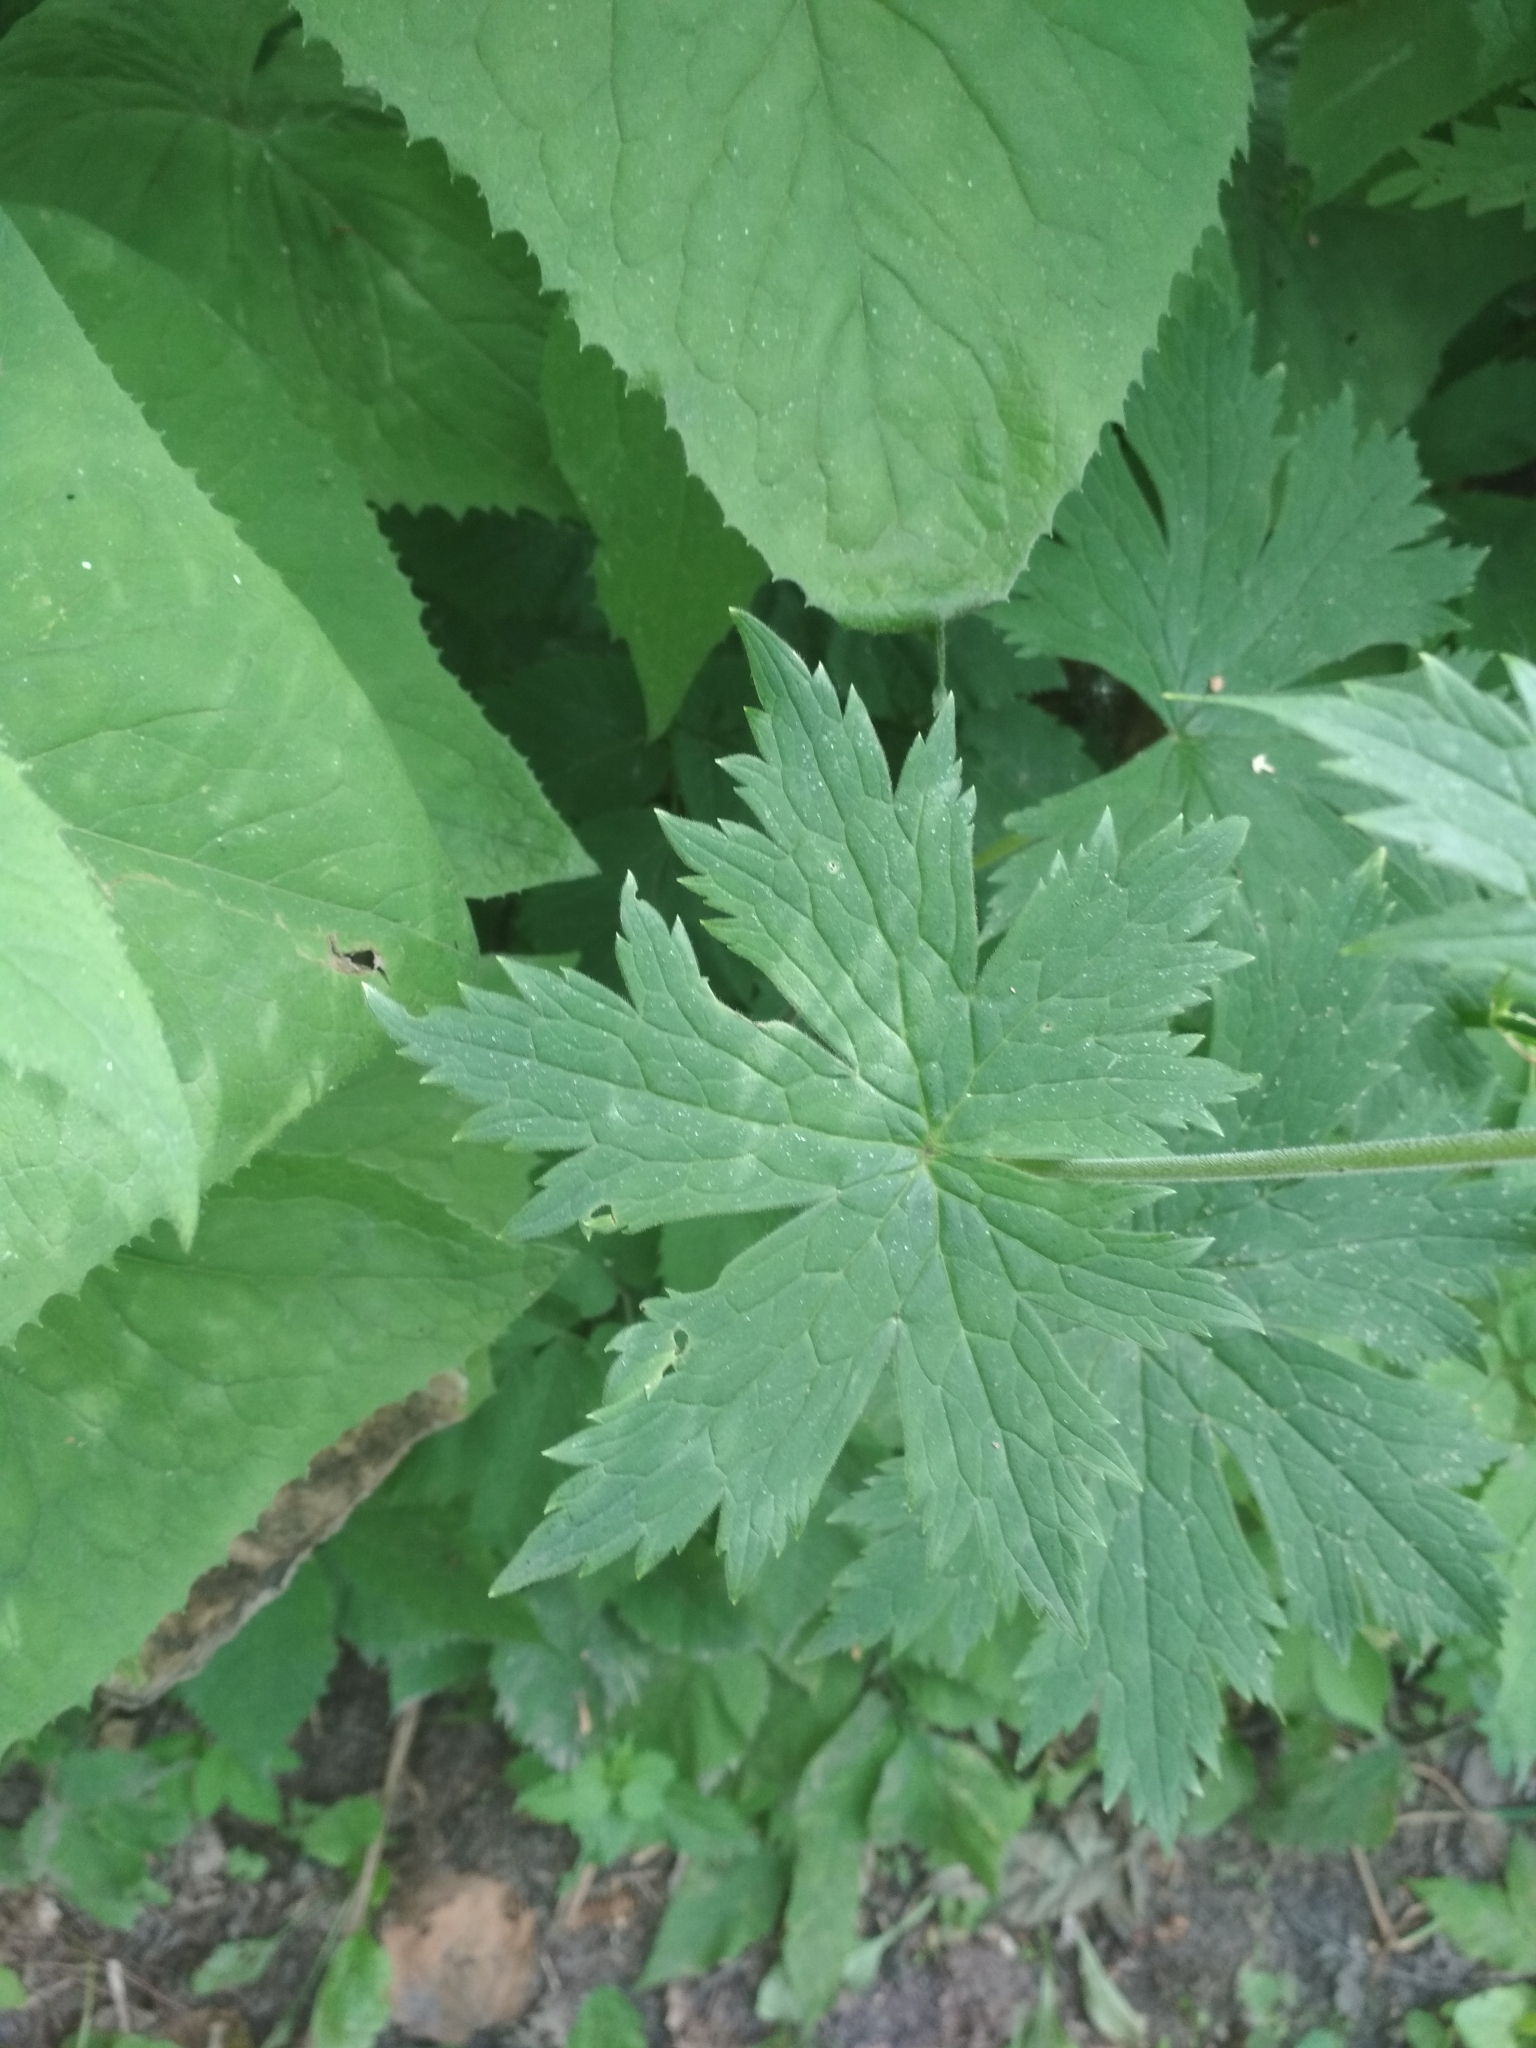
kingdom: Plantae
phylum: Tracheophyta
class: Magnoliopsida
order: Ranunculales
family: Ranunculaceae
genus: Aconitum
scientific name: Aconitum septentrionale
